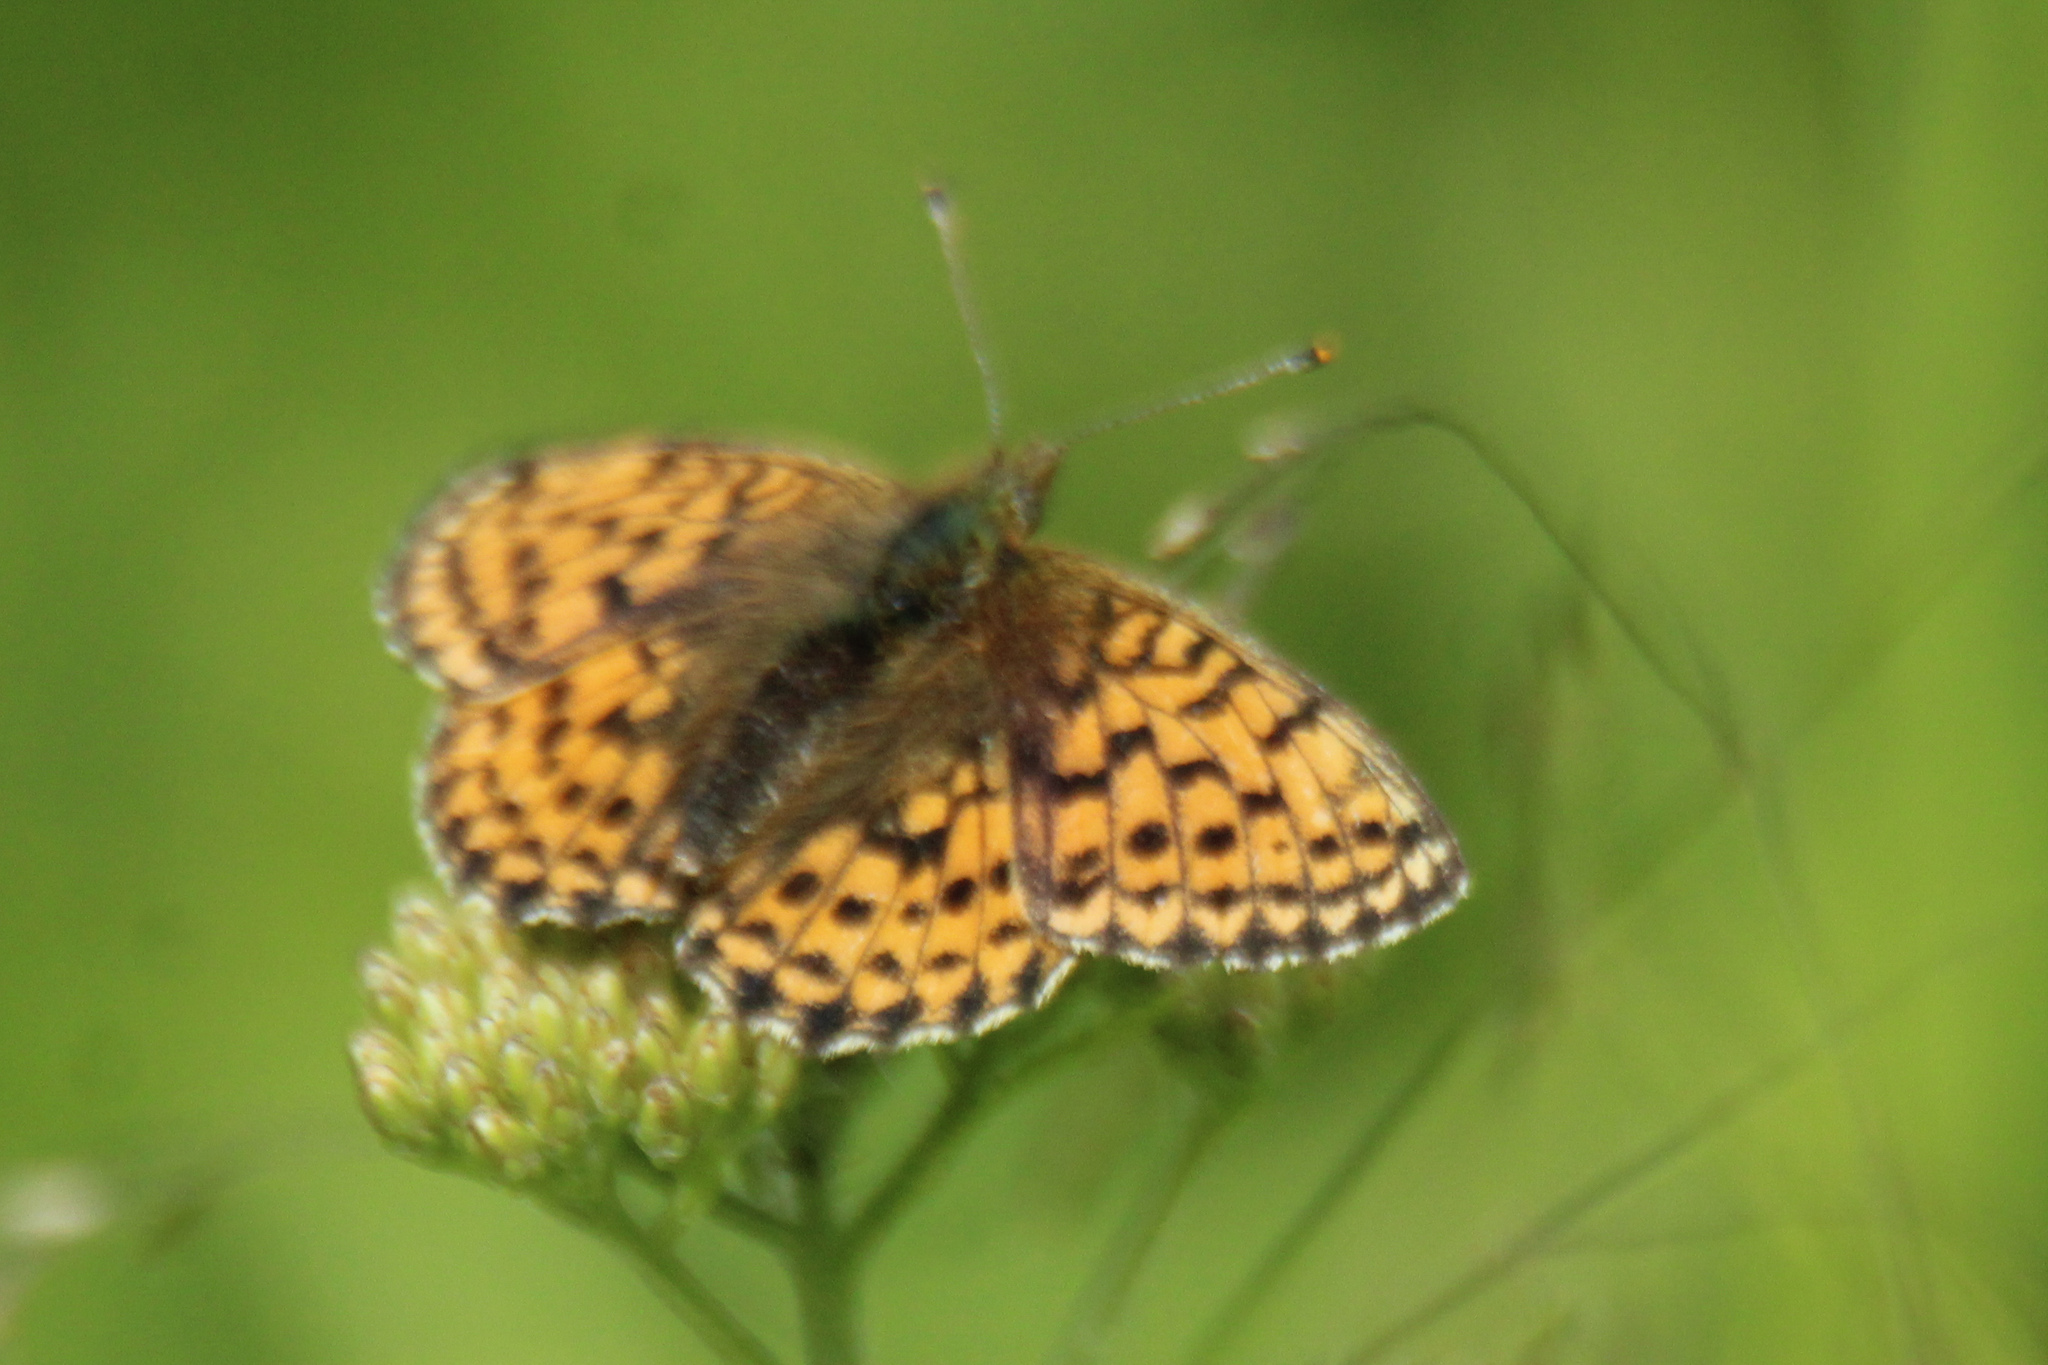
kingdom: Animalia
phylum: Arthropoda
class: Insecta
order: Lepidoptera
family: Nymphalidae
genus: Brenthis
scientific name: Brenthis ino
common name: Lesser marbled fritillary
